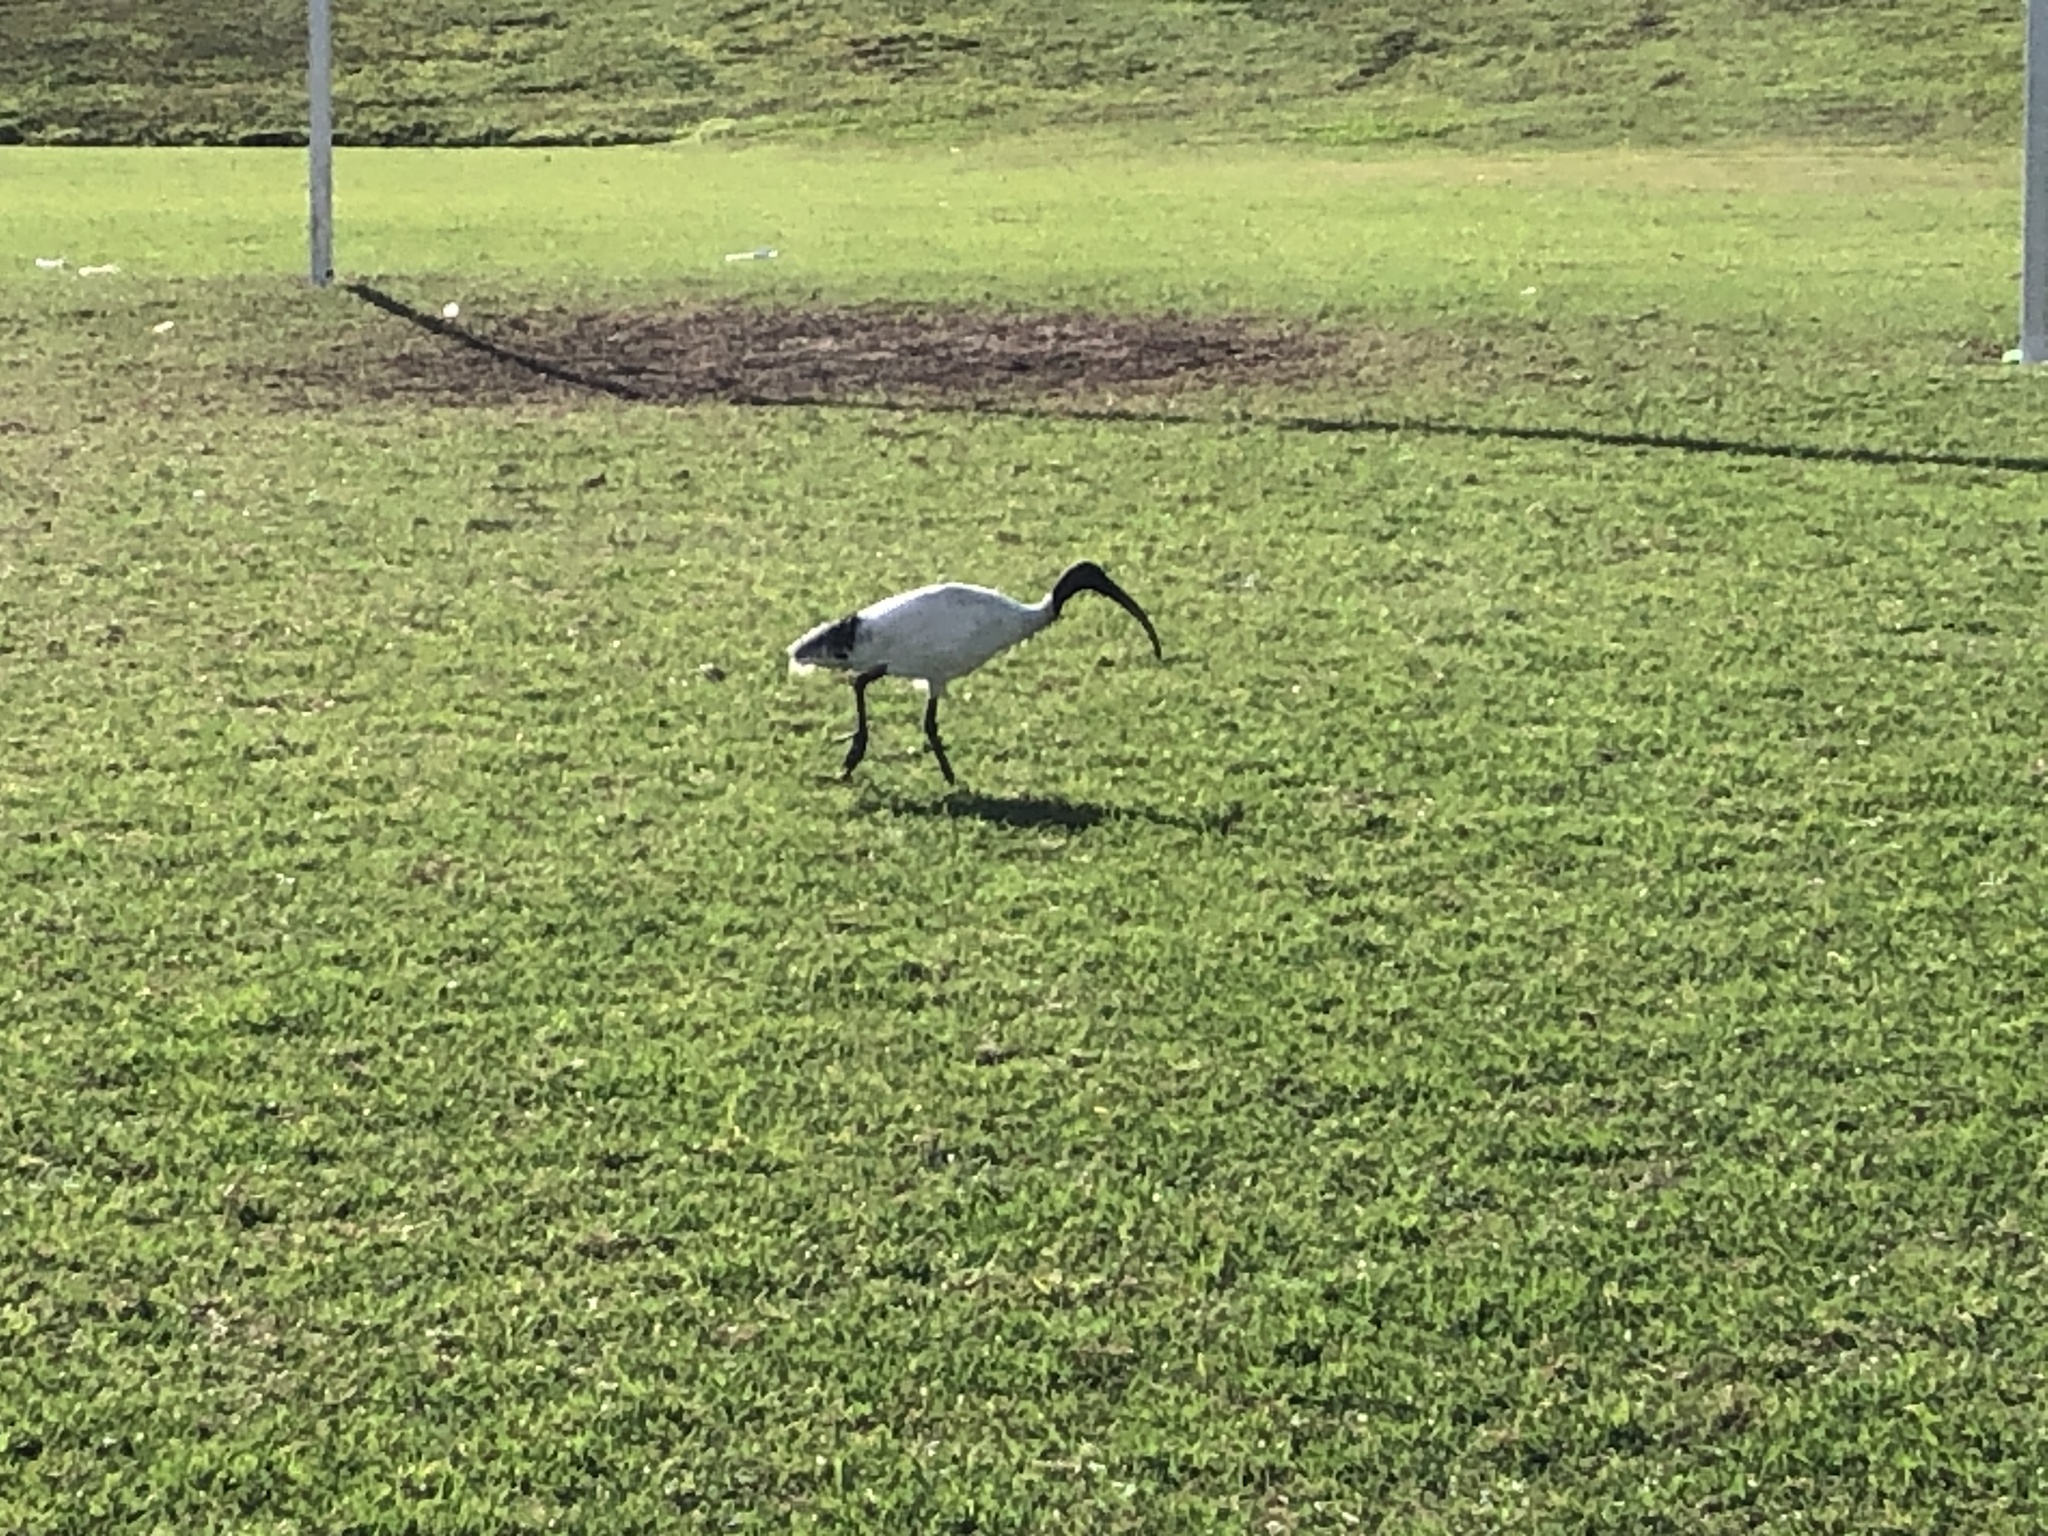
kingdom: Animalia
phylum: Chordata
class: Aves
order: Pelecaniformes
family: Threskiornithidae
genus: Threskiornis
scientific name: Threskiornis molucca
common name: Australian white ibis
